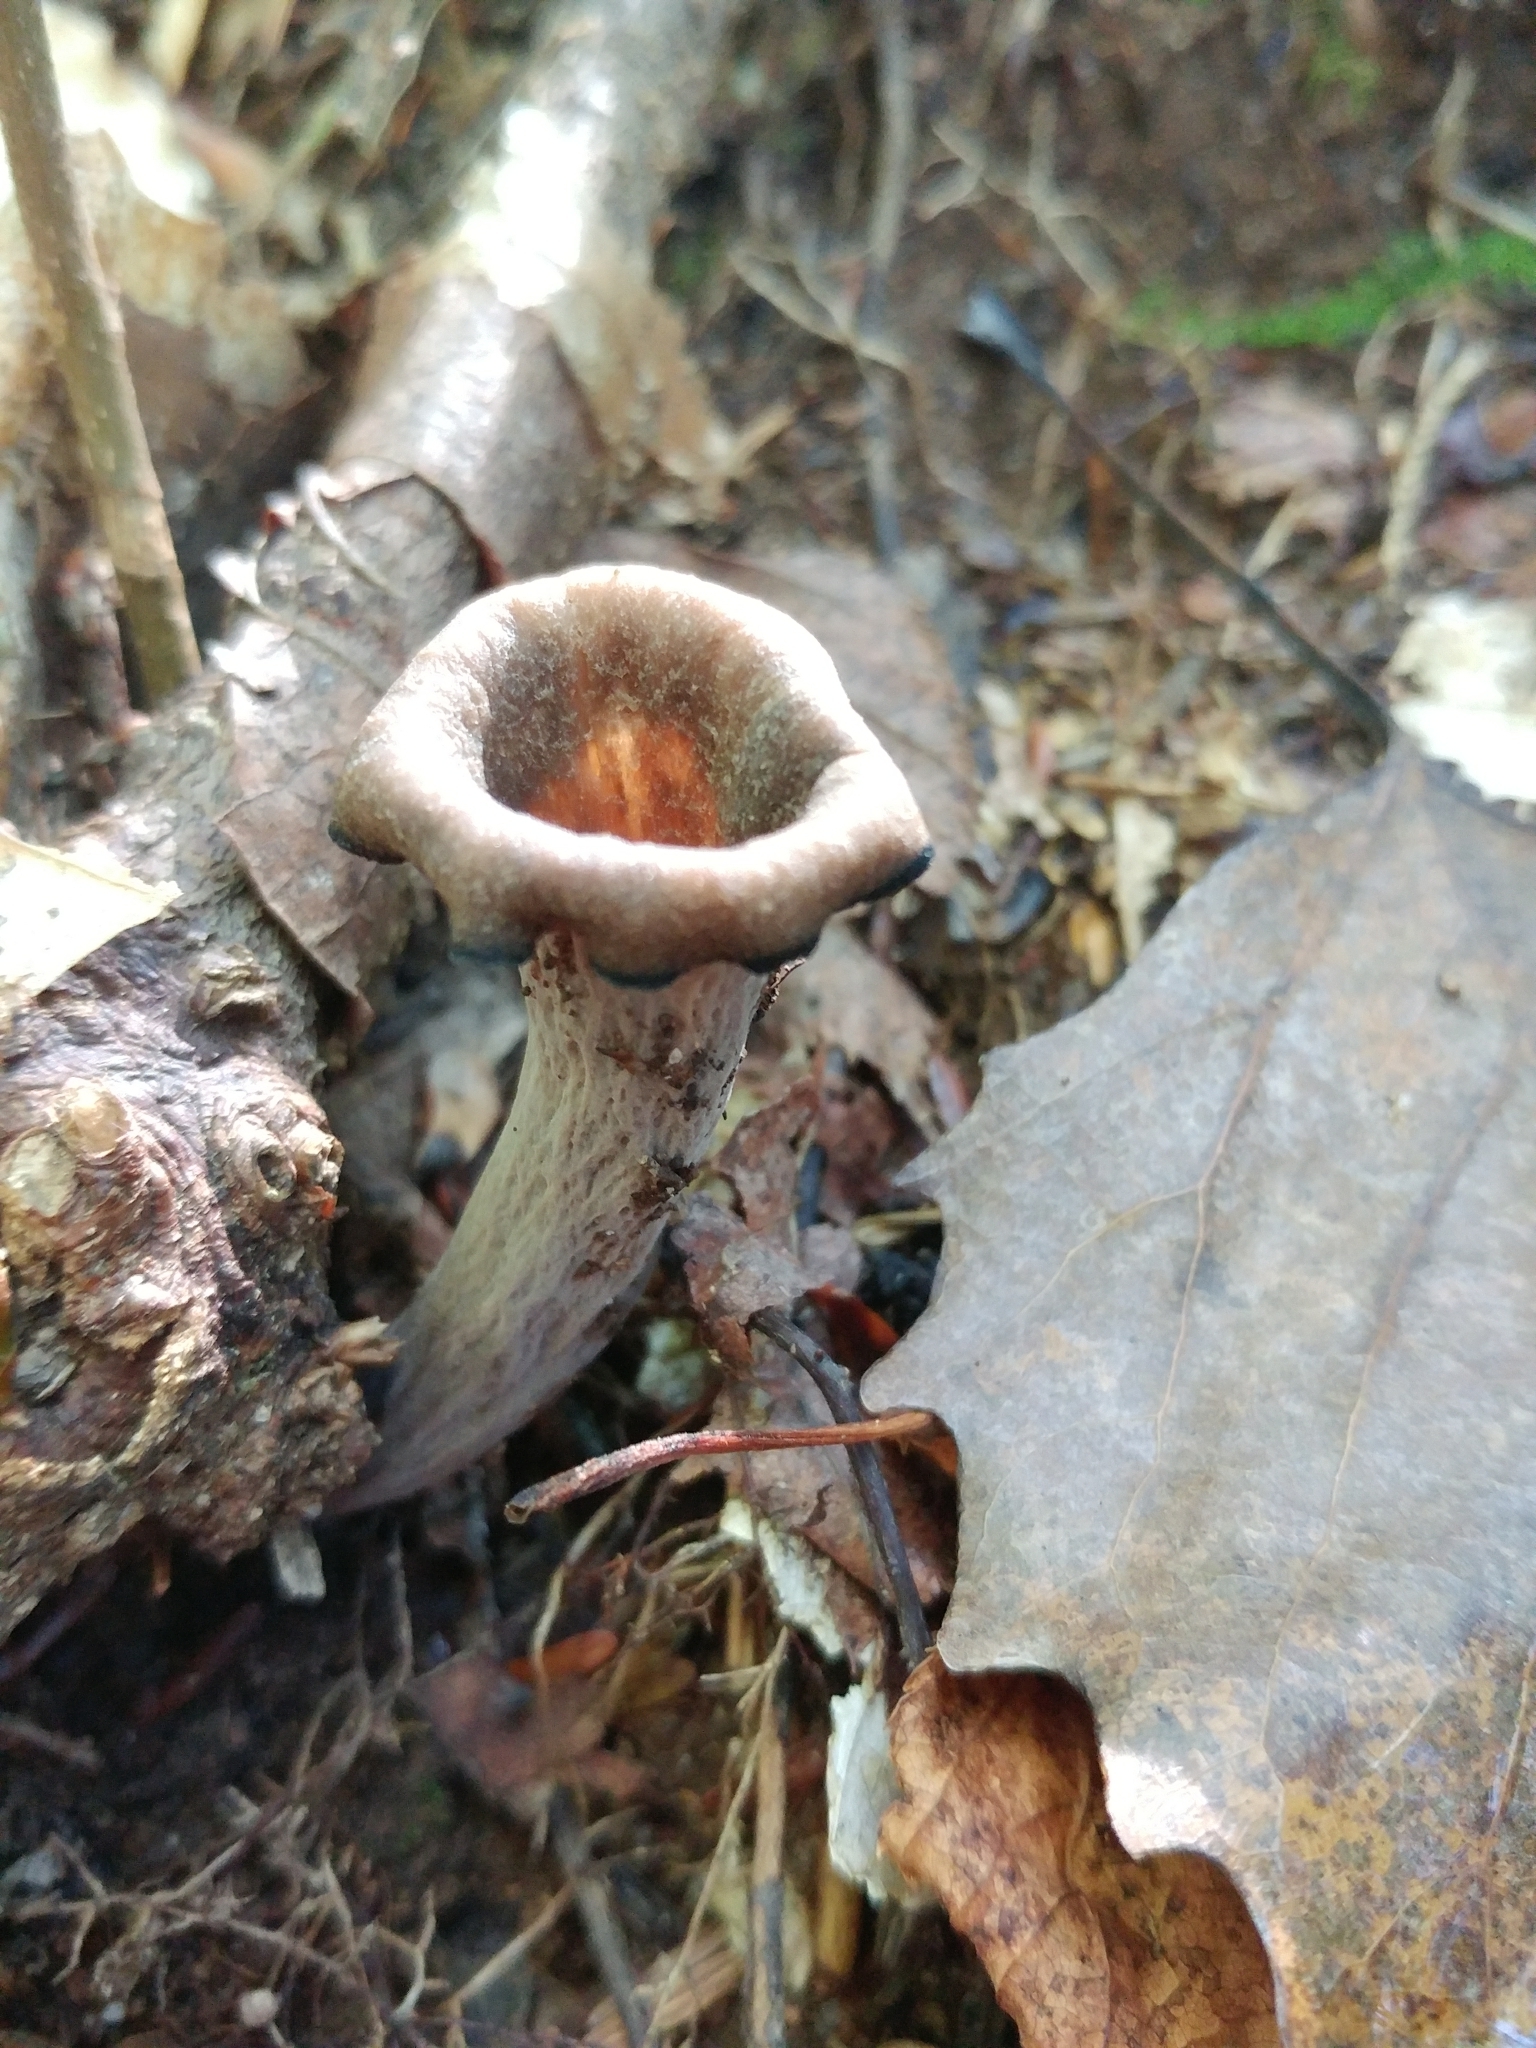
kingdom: Fungi
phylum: Basidiomycota
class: Agaricomycetes
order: Cantharellales
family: Hydnaceae
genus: Craterellus
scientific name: Craterellus cornucopioides
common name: Horn of plenty
